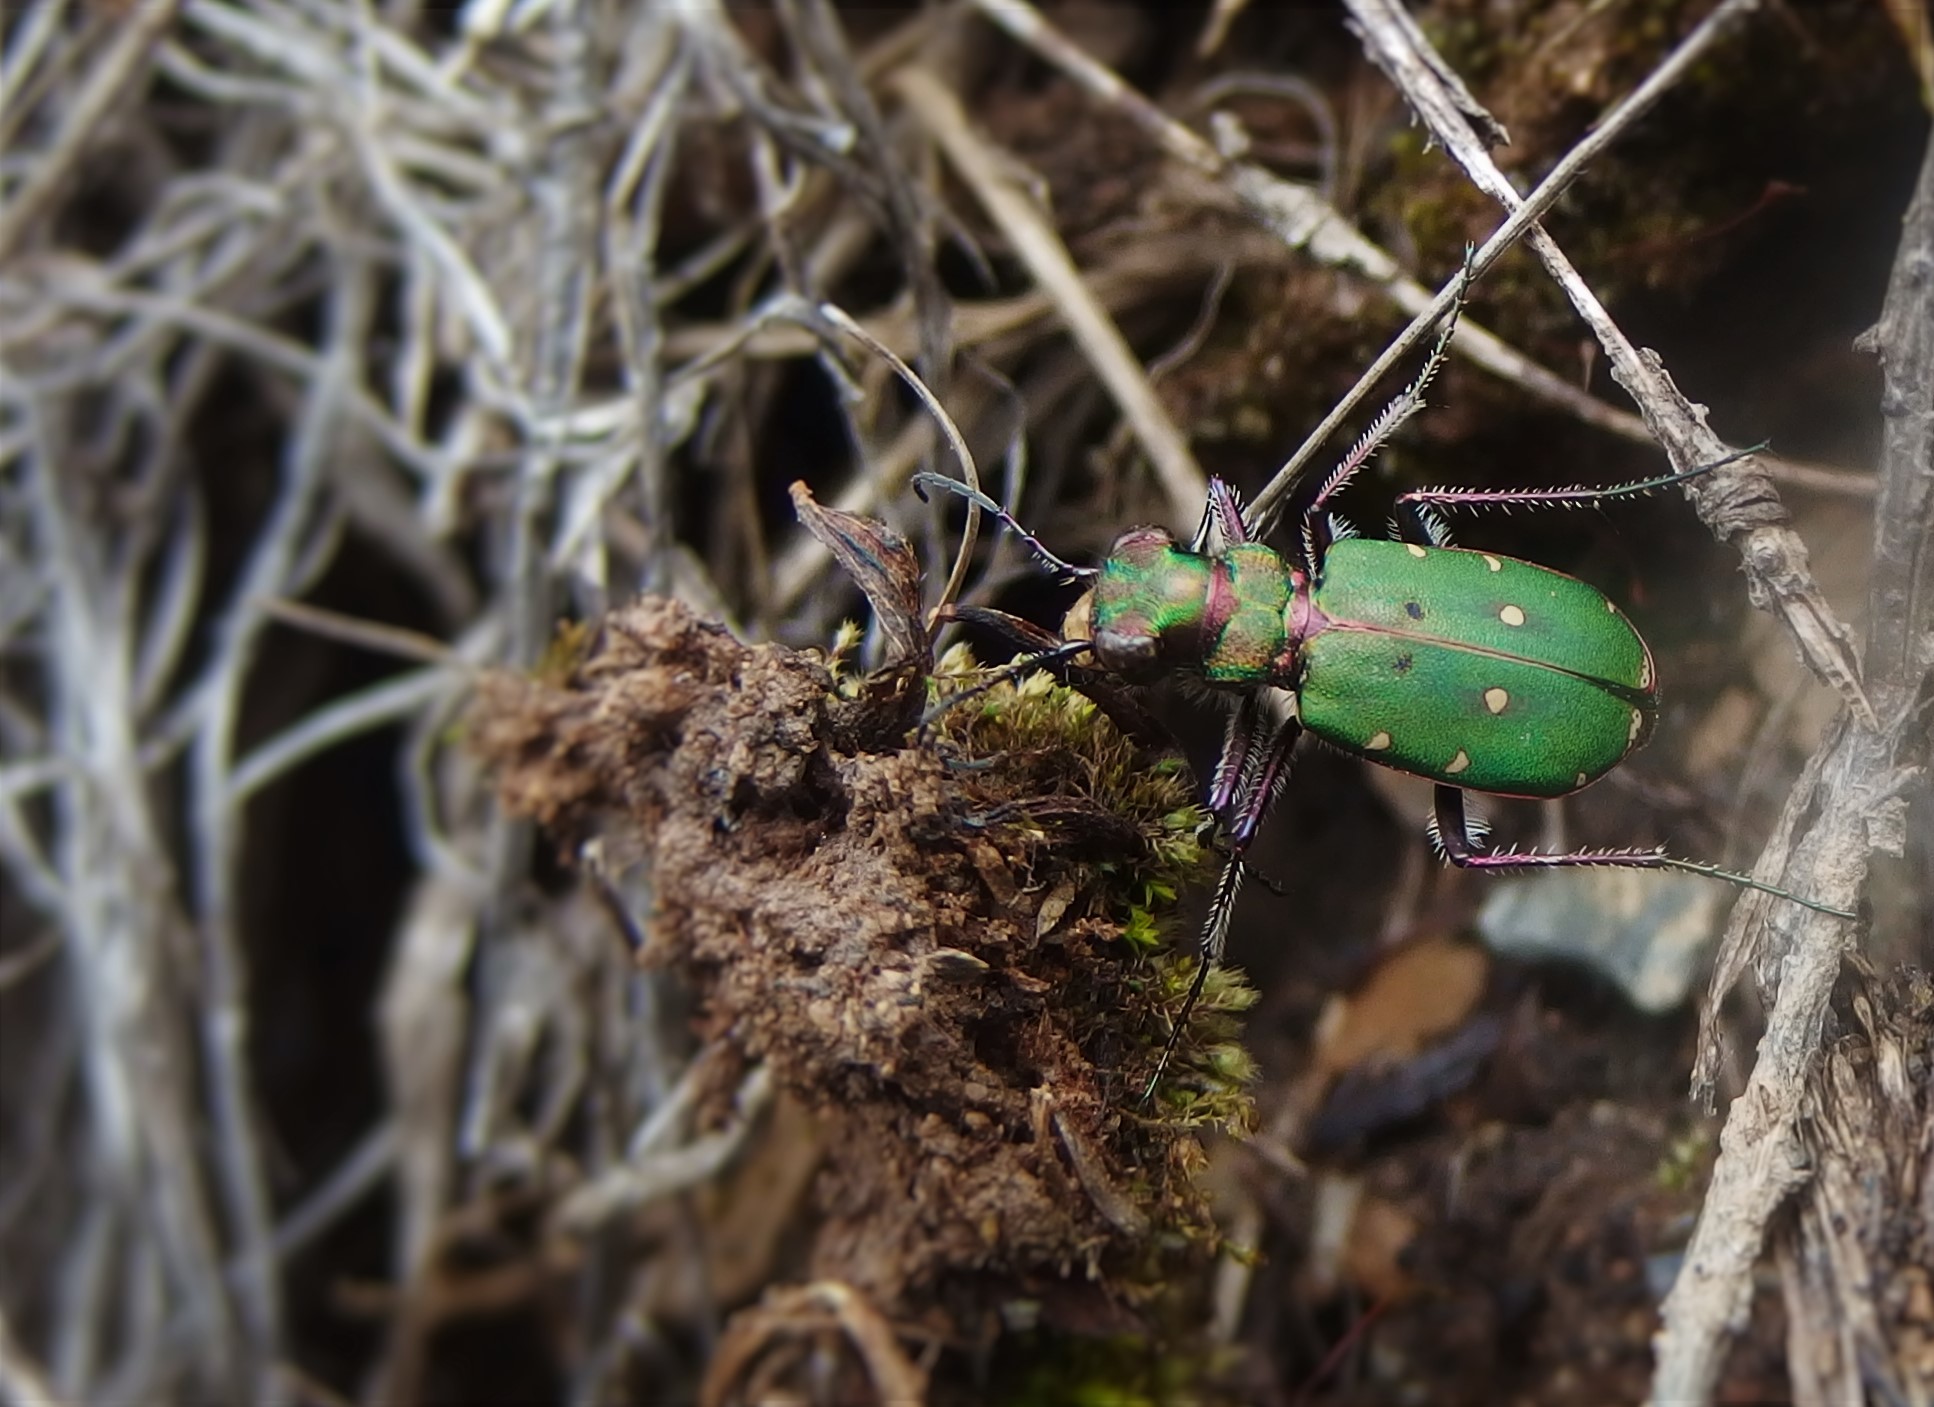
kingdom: Animalia
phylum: Arthropoda
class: Insecta
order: Coleoptera
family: Carabidae
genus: Cicindela
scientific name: Cicindela campestris
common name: Common tiger beetle
